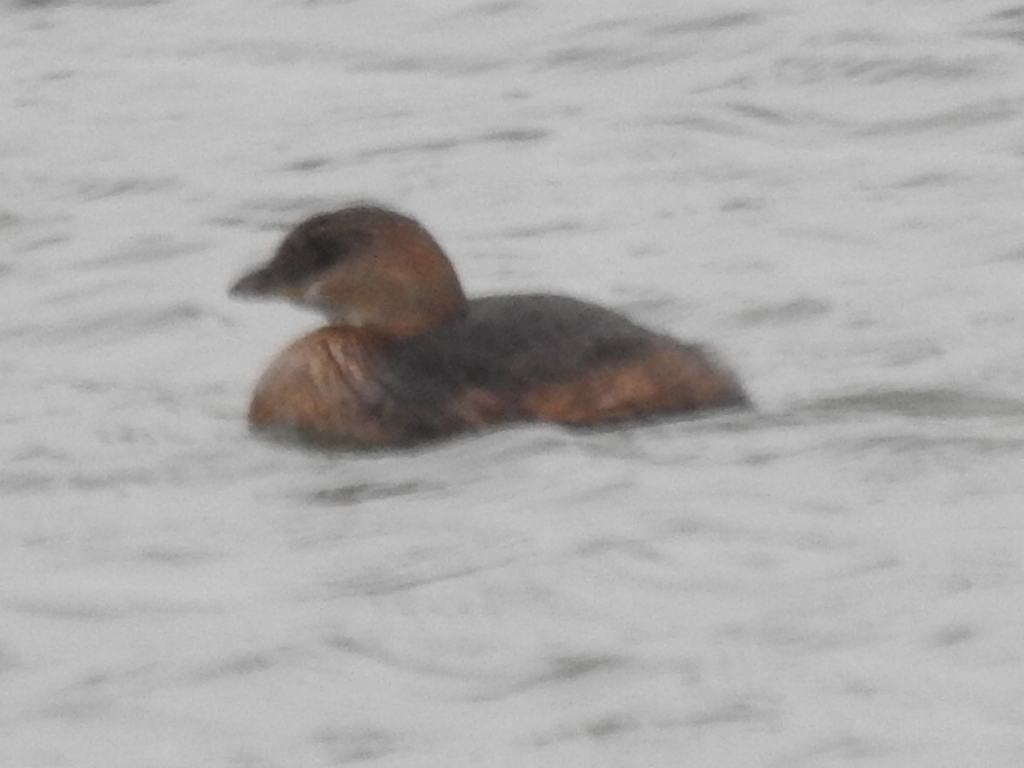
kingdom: Animalia
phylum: Chordata
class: Aves
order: Podicipediformes
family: Podicipedidae
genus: Podilymbus
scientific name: Podilymbus podiceps
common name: Pied-billed grebe
